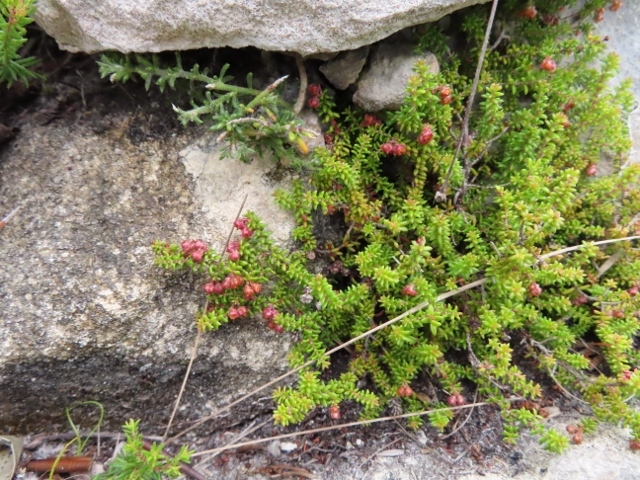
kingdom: Plantae
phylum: Tracheophyta
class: Magnoliopsida
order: Ericales
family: Ericaceae
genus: Erica
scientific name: Erica saxicola
